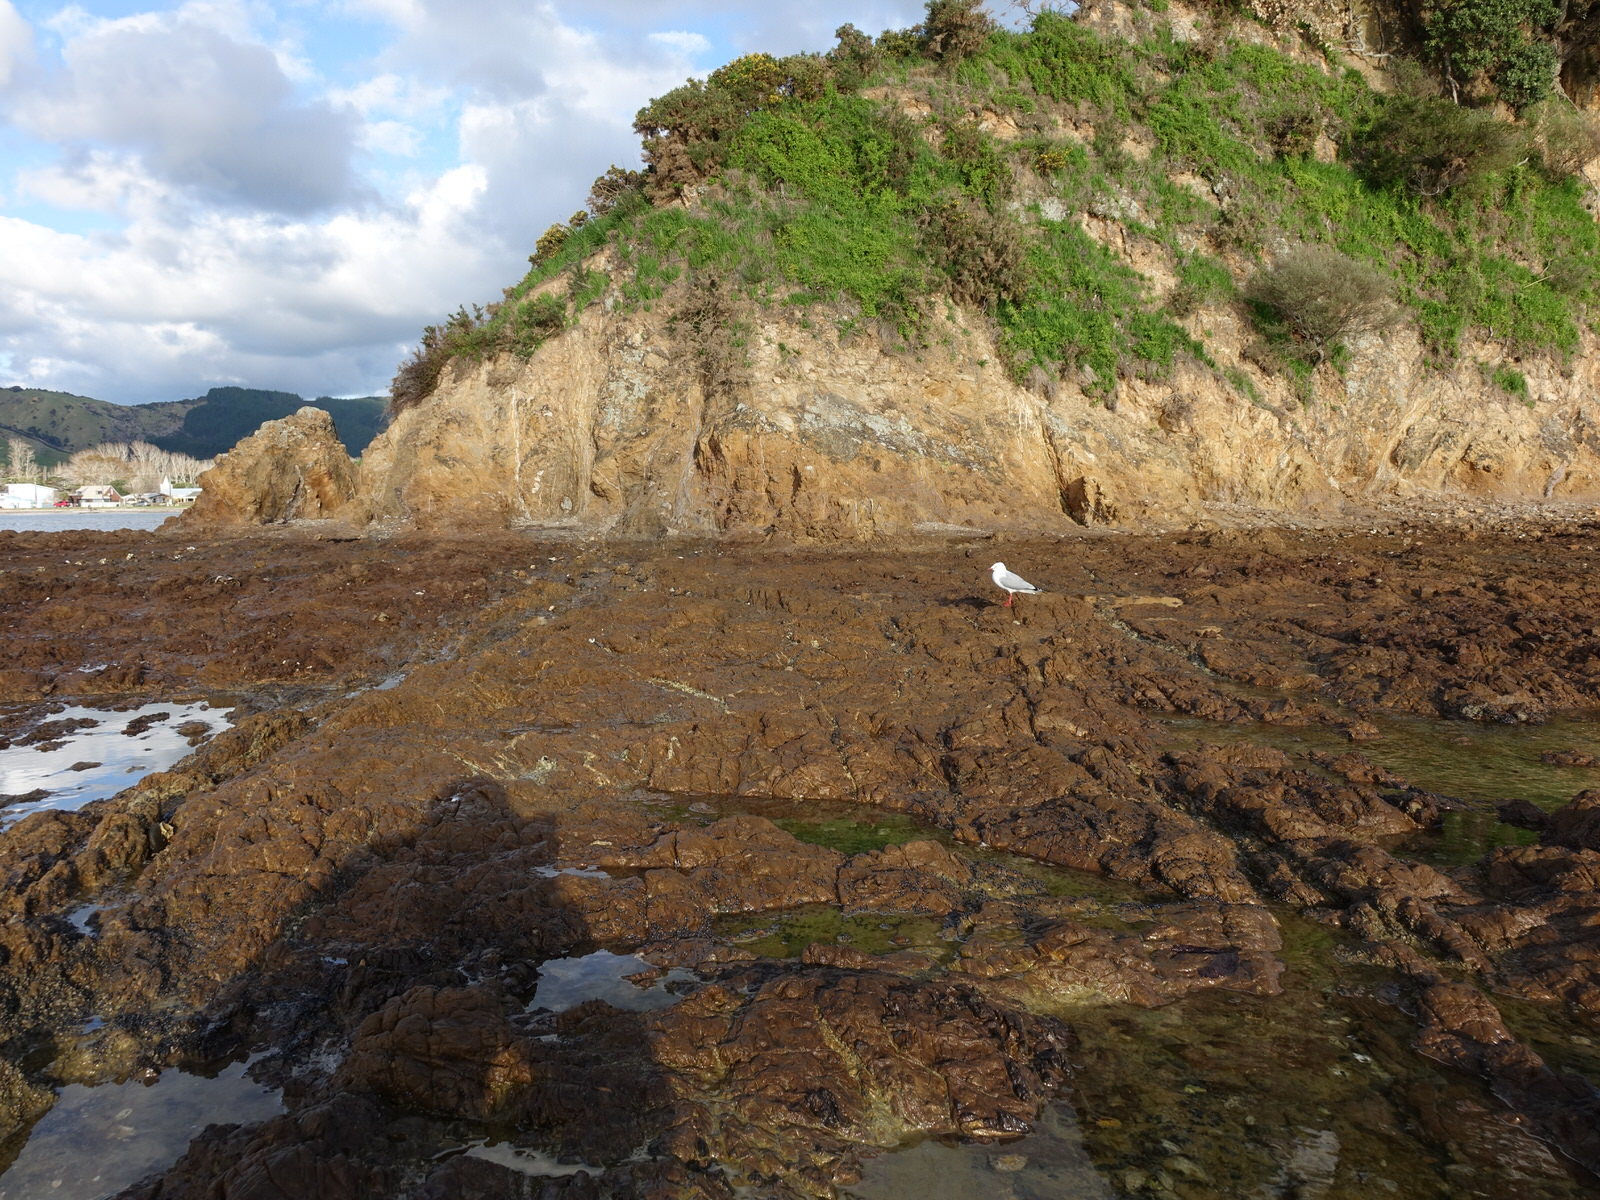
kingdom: Animalia
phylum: Chordata
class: Aves
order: Charadriiformes
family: Laridae
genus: Chroicocephalus
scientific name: Chroicocephalus novaehollandiae
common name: Silver gull
